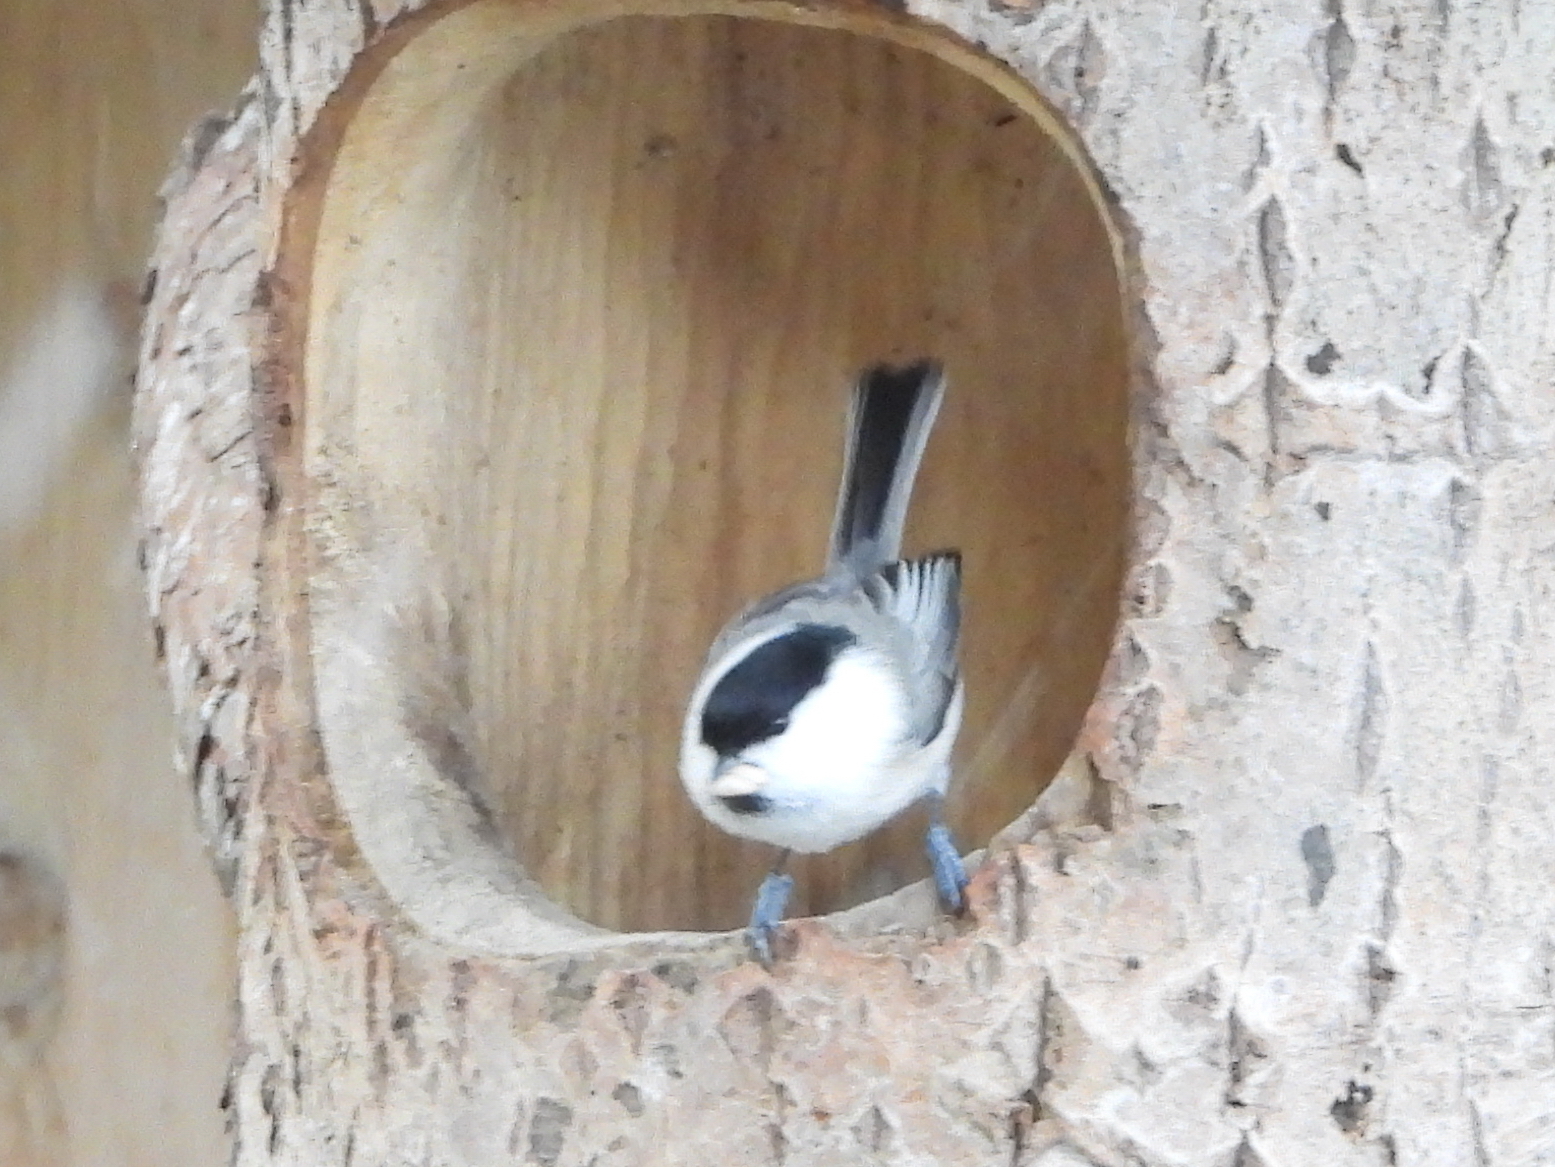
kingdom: Animalia
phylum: Chordata
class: Aves
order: Passeriformes
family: Paridae
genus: Poecile
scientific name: Poecile montanus
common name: Willow tit
